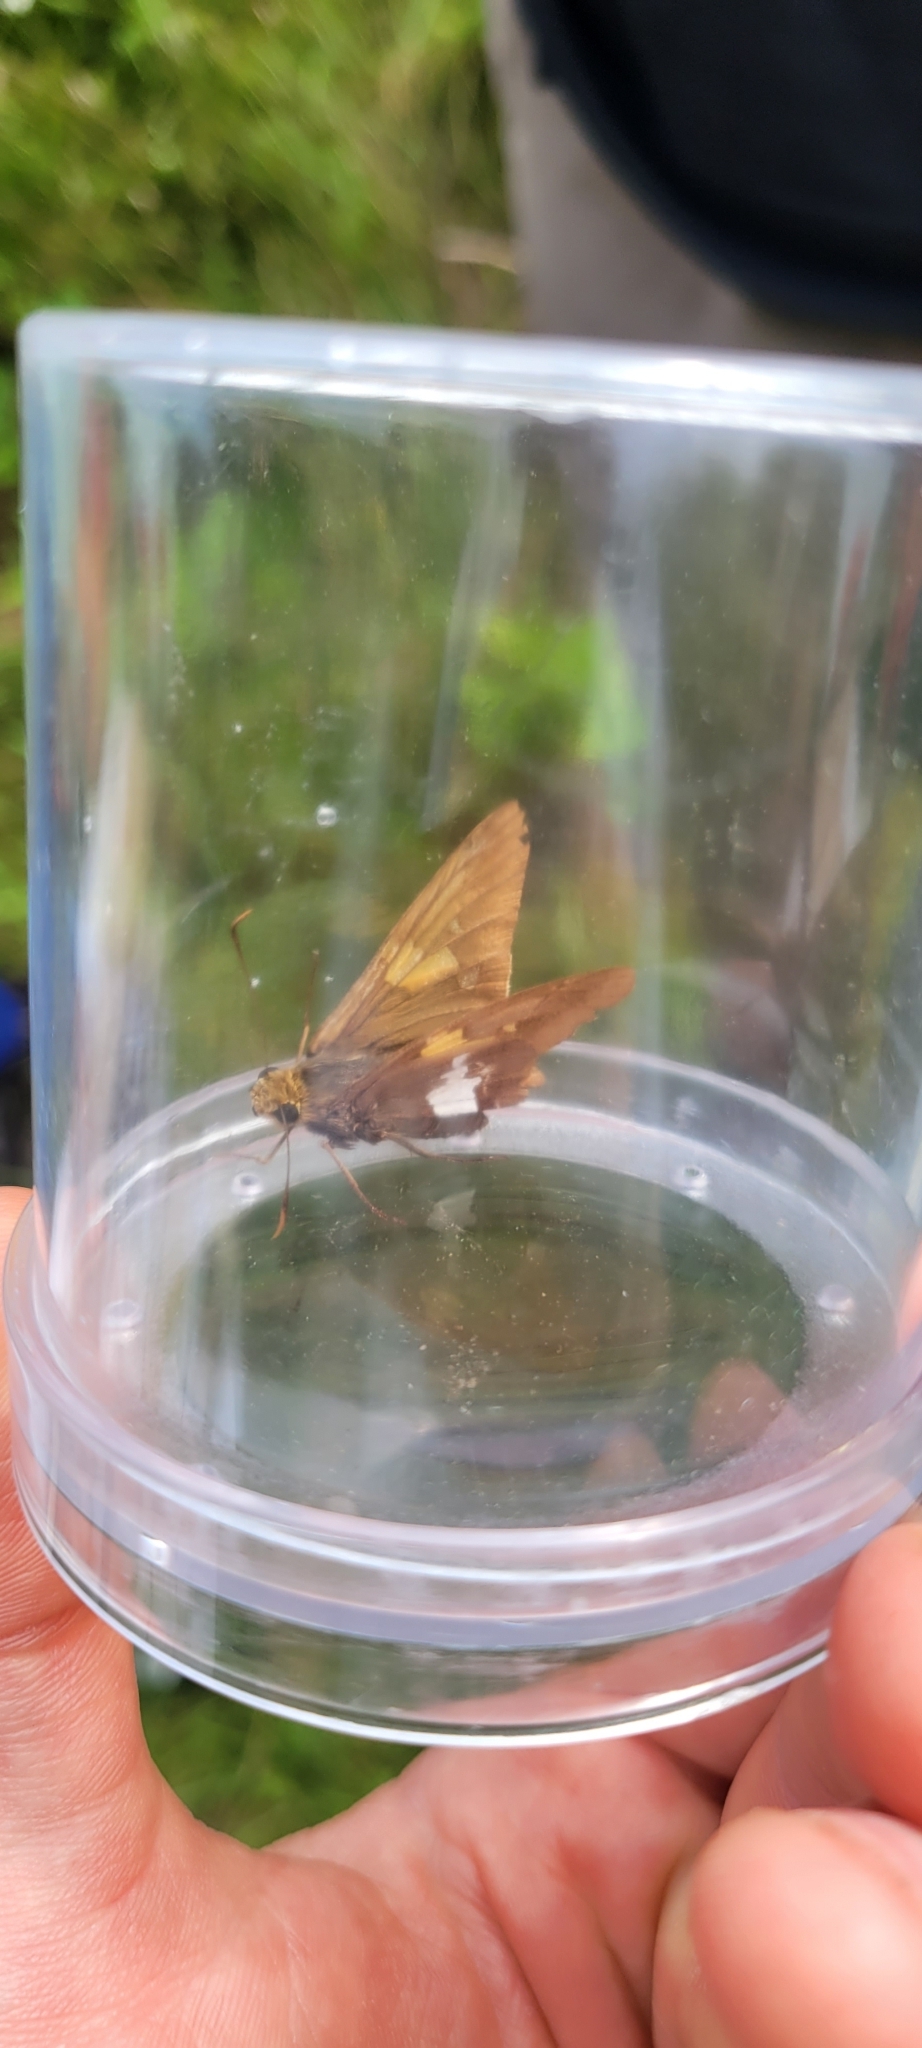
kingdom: Animalia
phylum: Arthropoda
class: Insecta
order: Lepidoptera
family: Hesperiidae
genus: Epargyreus
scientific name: Epargyreus clarus
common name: Silver-spotted skipper
